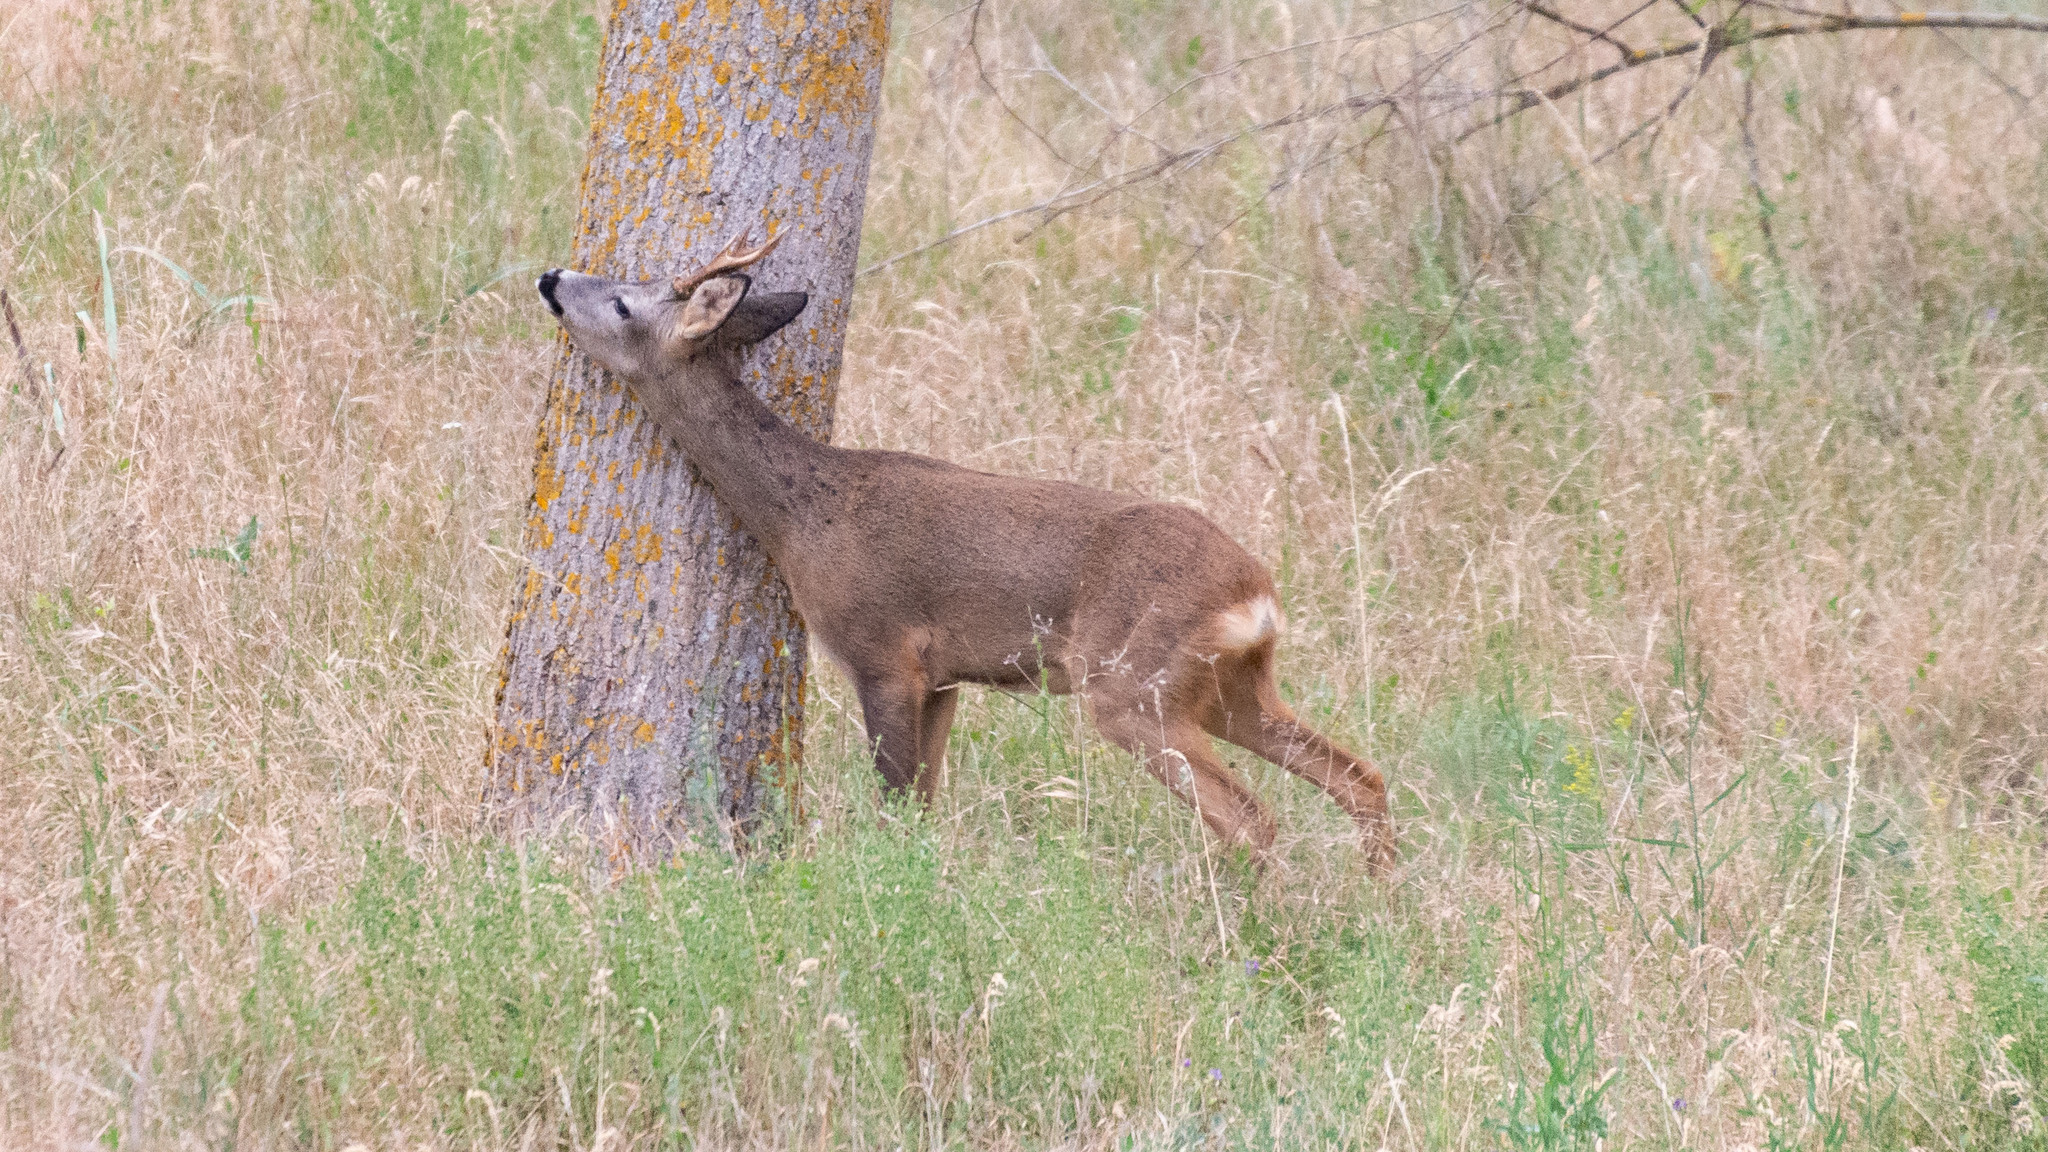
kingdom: Animalia
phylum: Chordata
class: Mammalia
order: Artiodactyla
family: Cervidae
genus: Capreolus
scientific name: Capreolus capreolus
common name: Western roe deer
